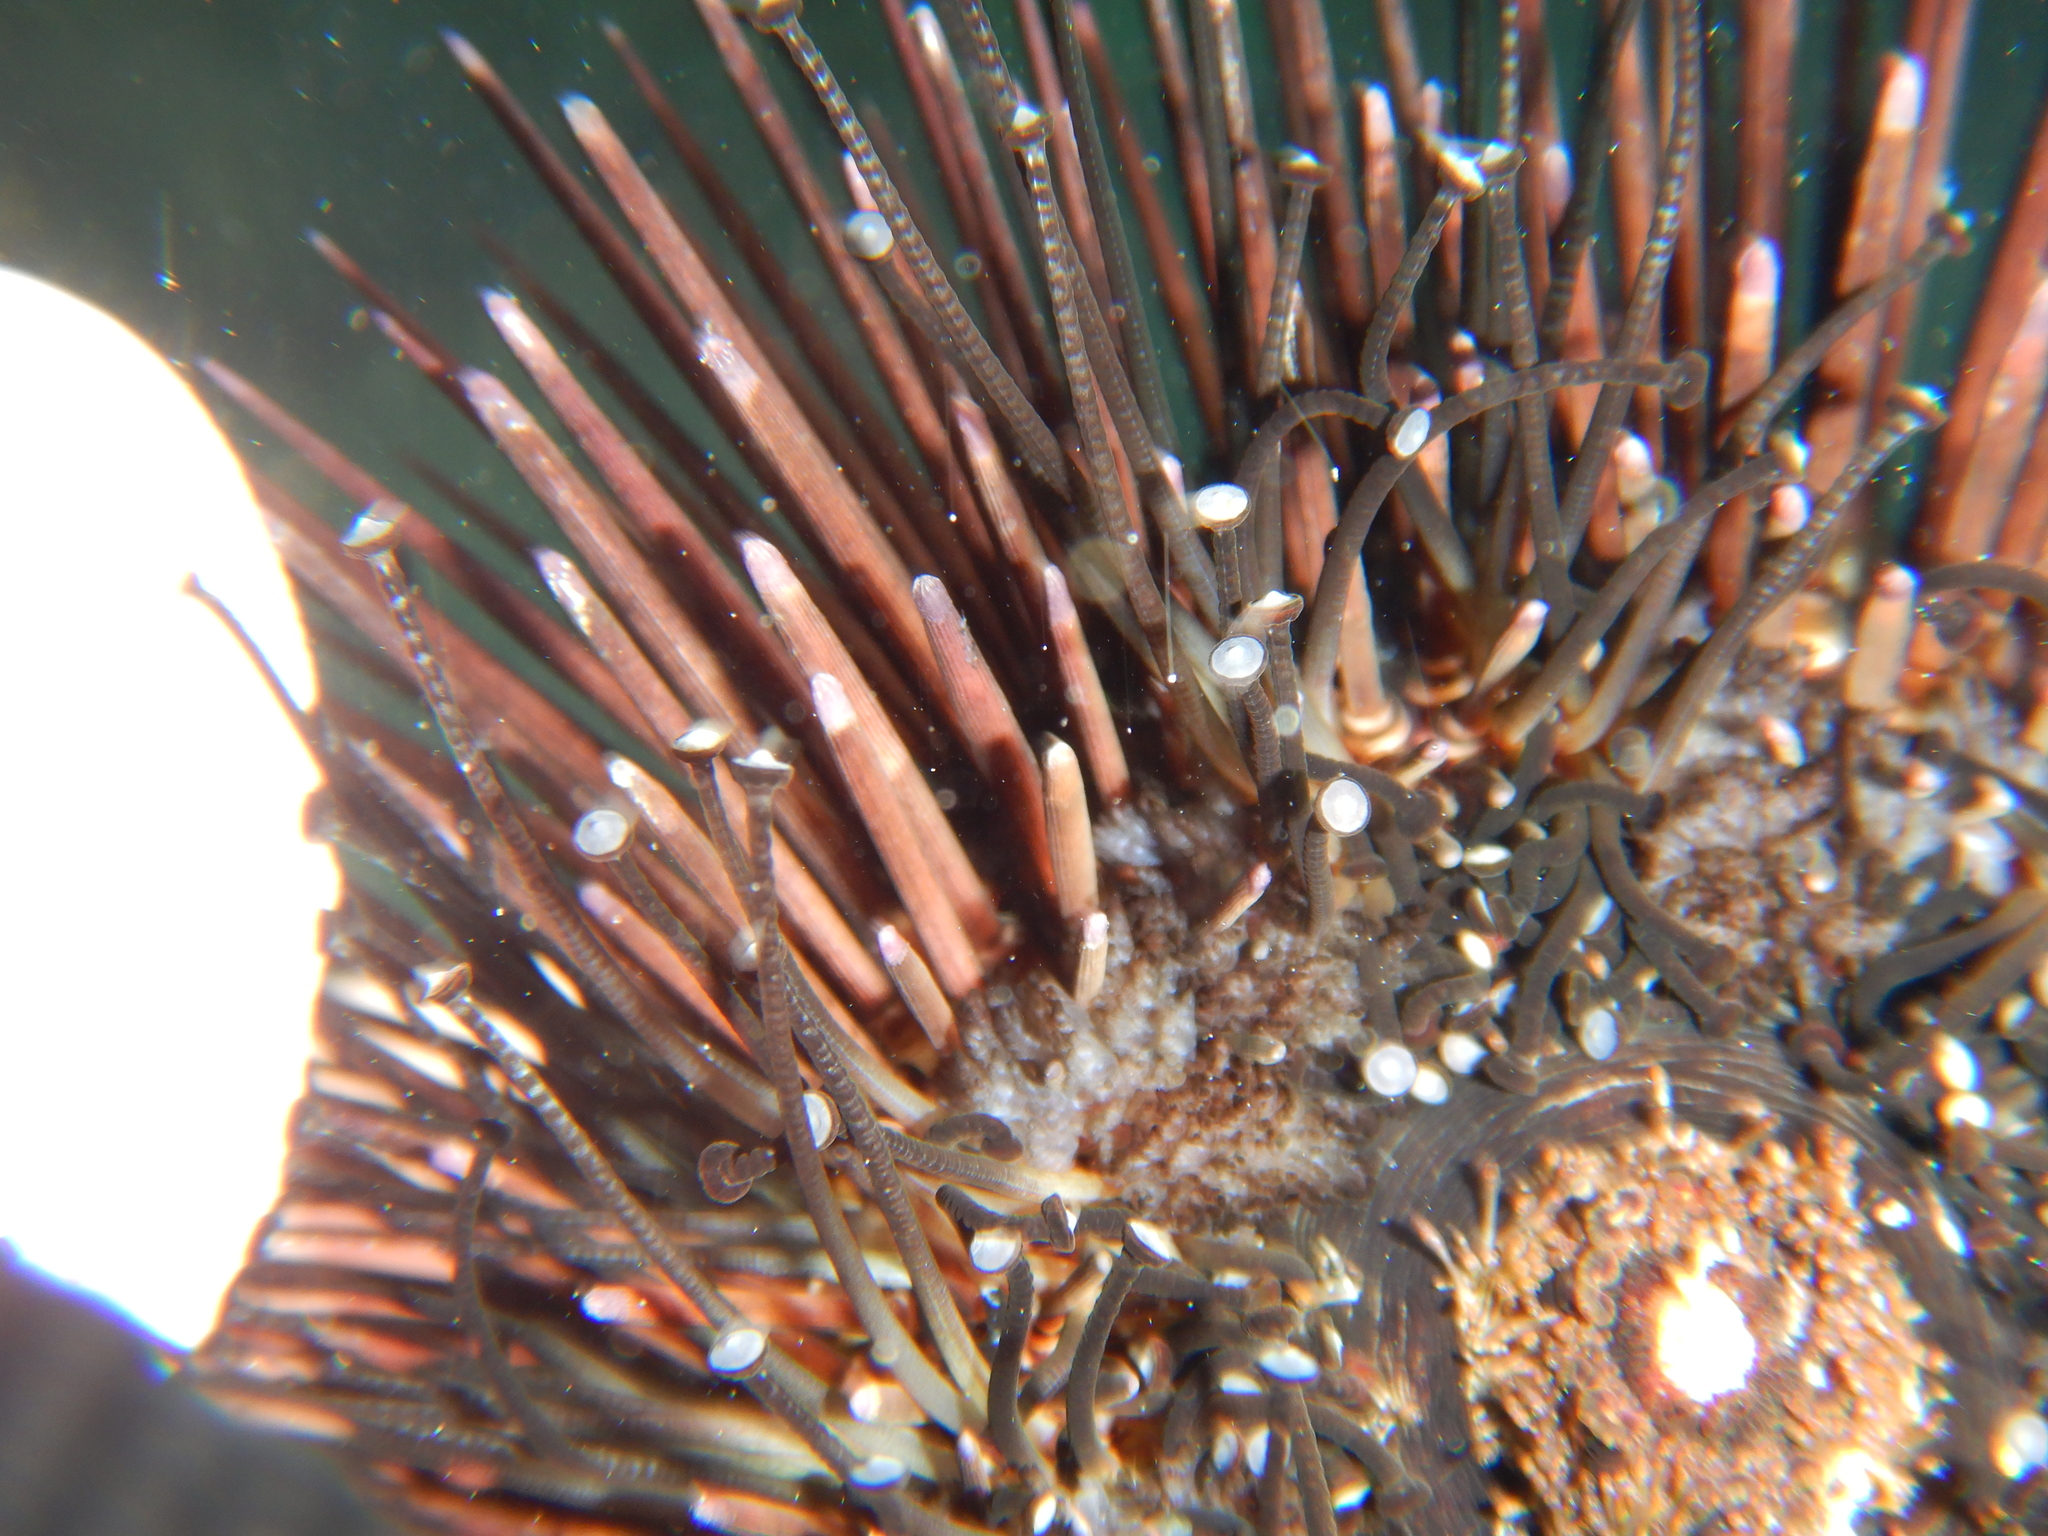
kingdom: Animalia
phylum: Echinodermata
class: Echinoidea
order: Arbacioida
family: Arbaciidae
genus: Arbacia
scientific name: Arbacia lixula
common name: Black sea urchin
